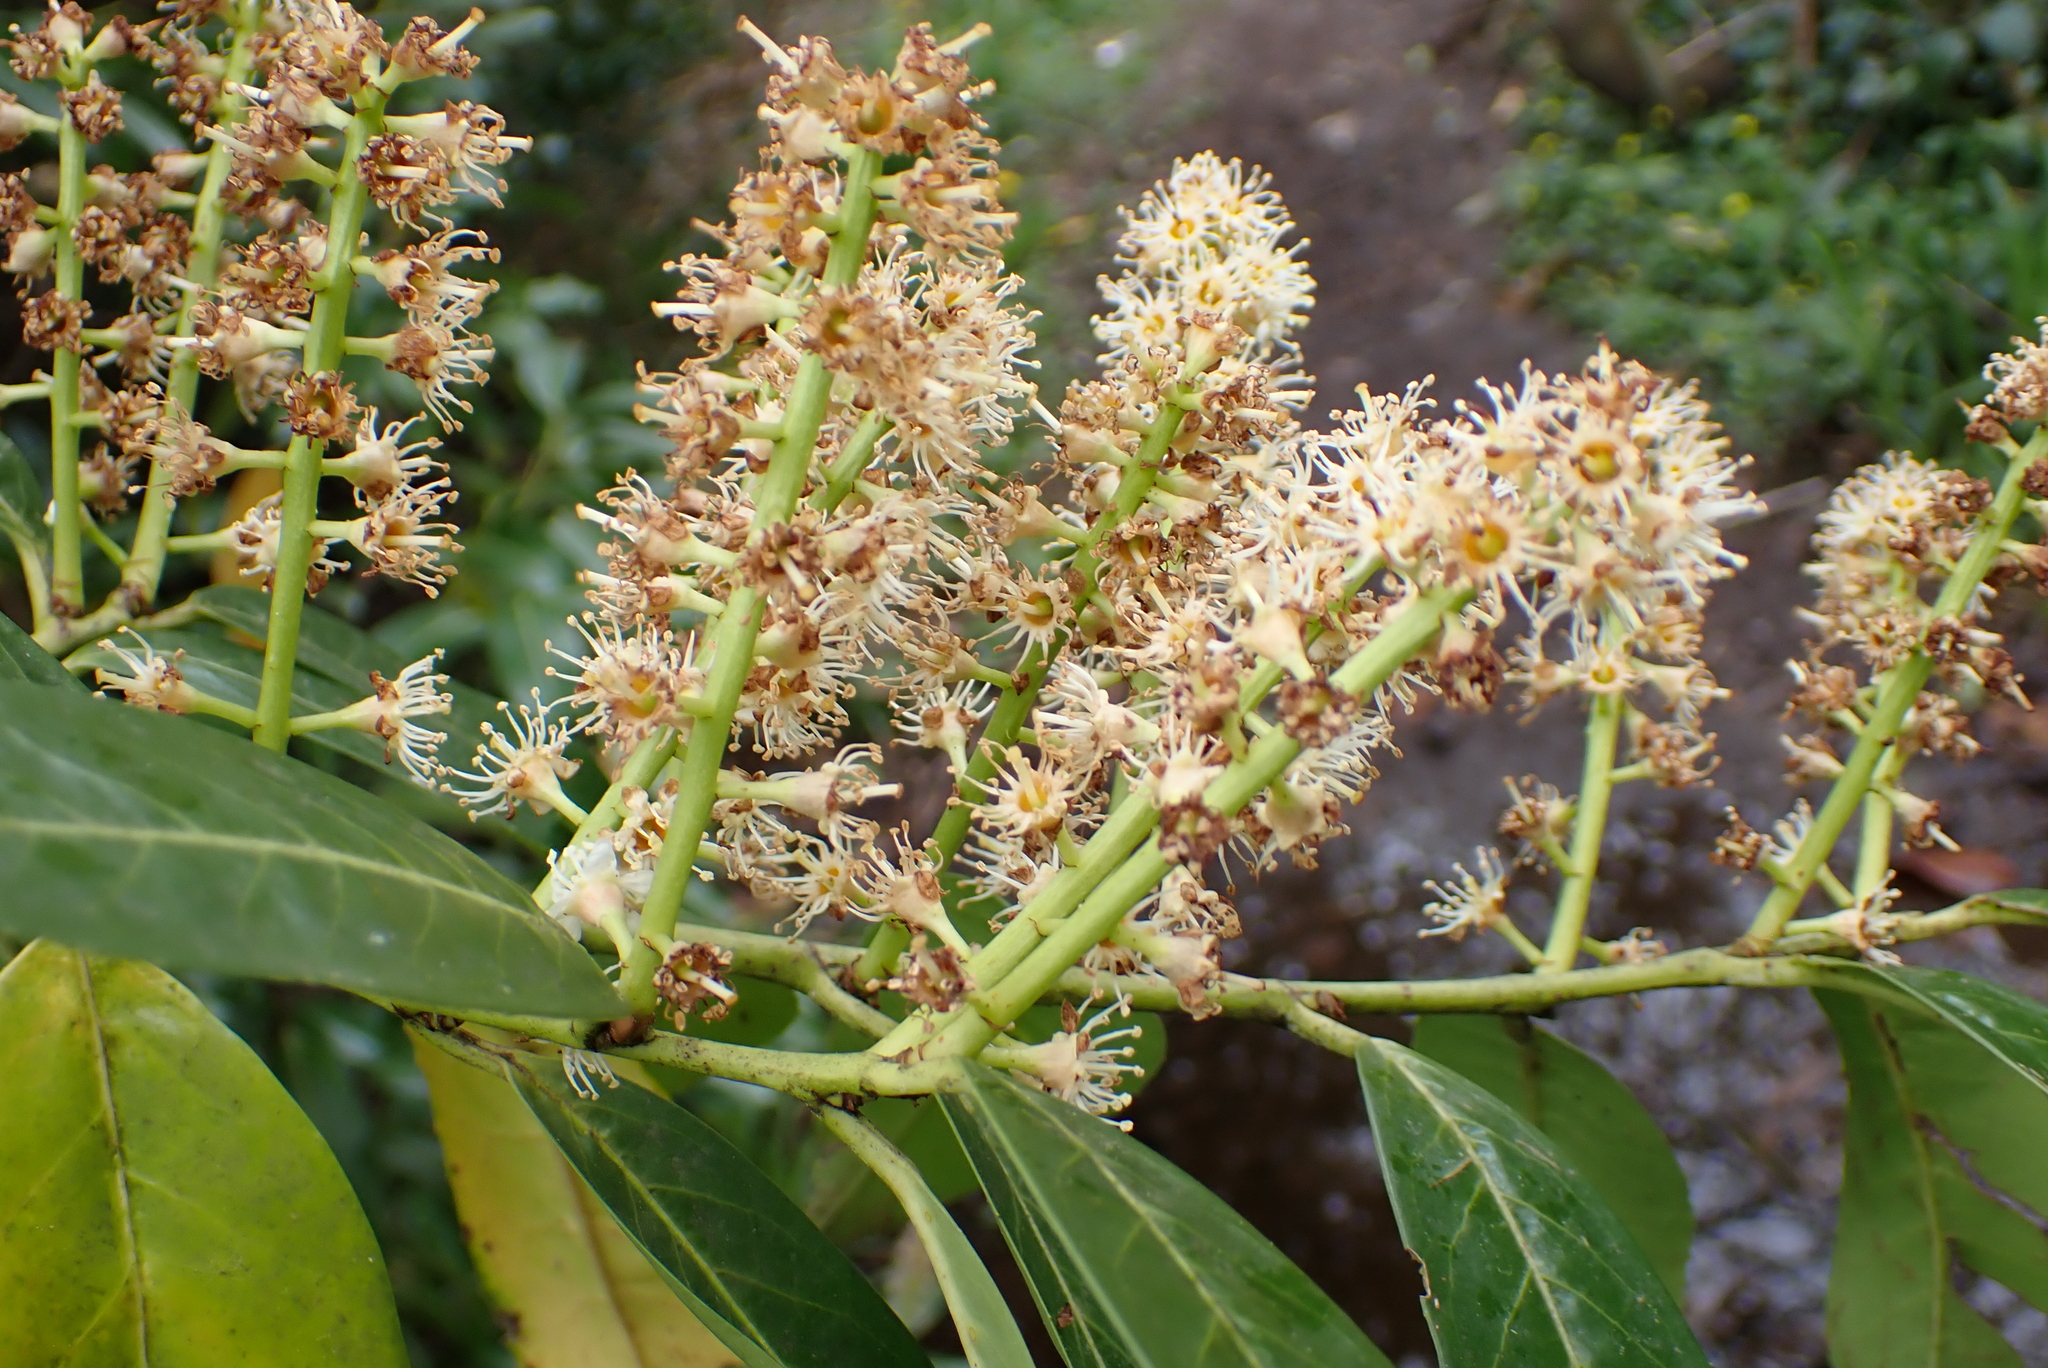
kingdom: Plantae
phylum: Tracheophyta
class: Magnoliopsida
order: Rosales
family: Rosaceae
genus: Prunus
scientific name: Prunus laurocerasus
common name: Cherry laurel
